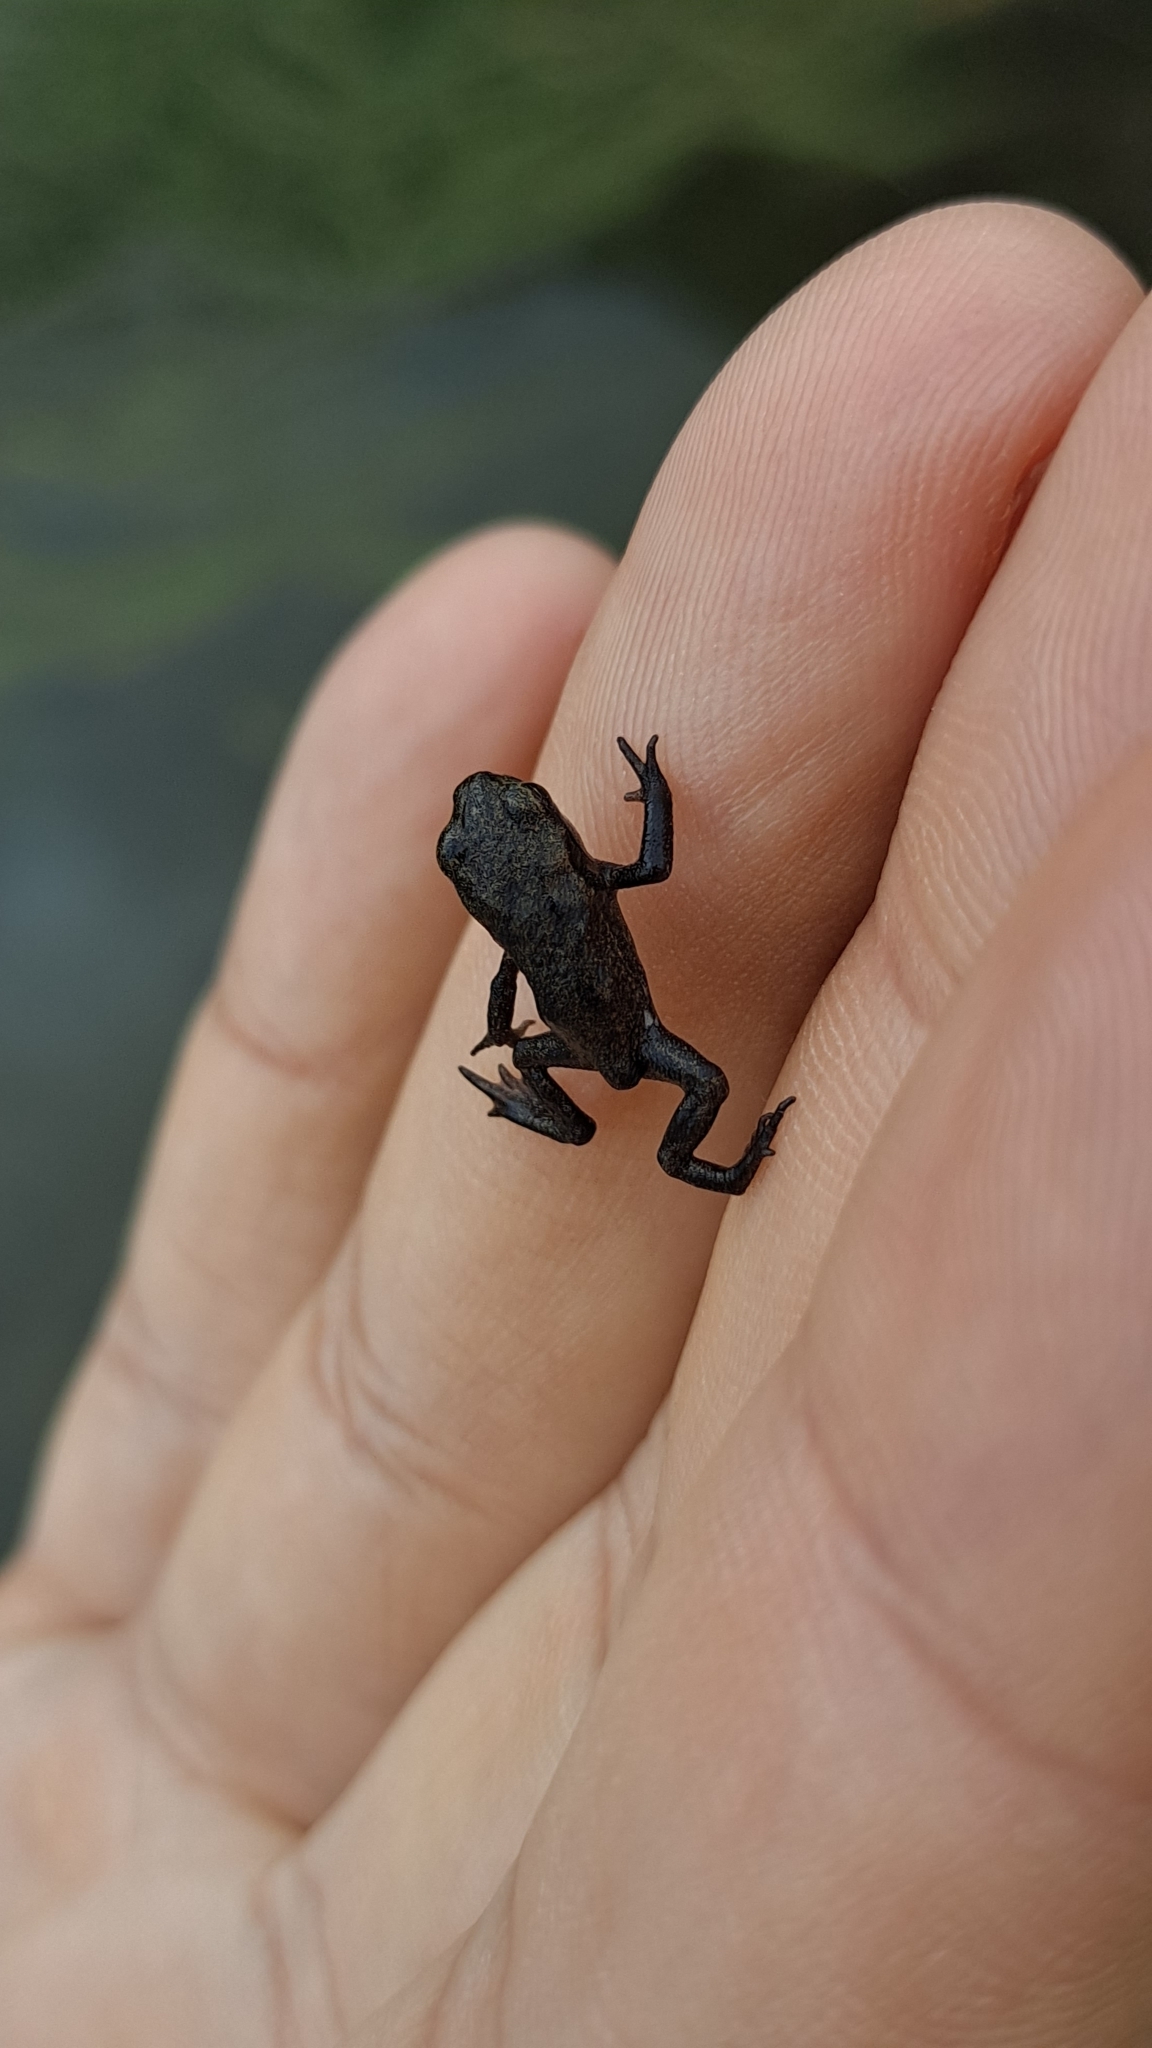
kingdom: Animalia
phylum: Chordata
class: Amphibia
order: Anura
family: Bufonidae
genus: Bufo
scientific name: Bufo spinosus
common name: Western common toad
